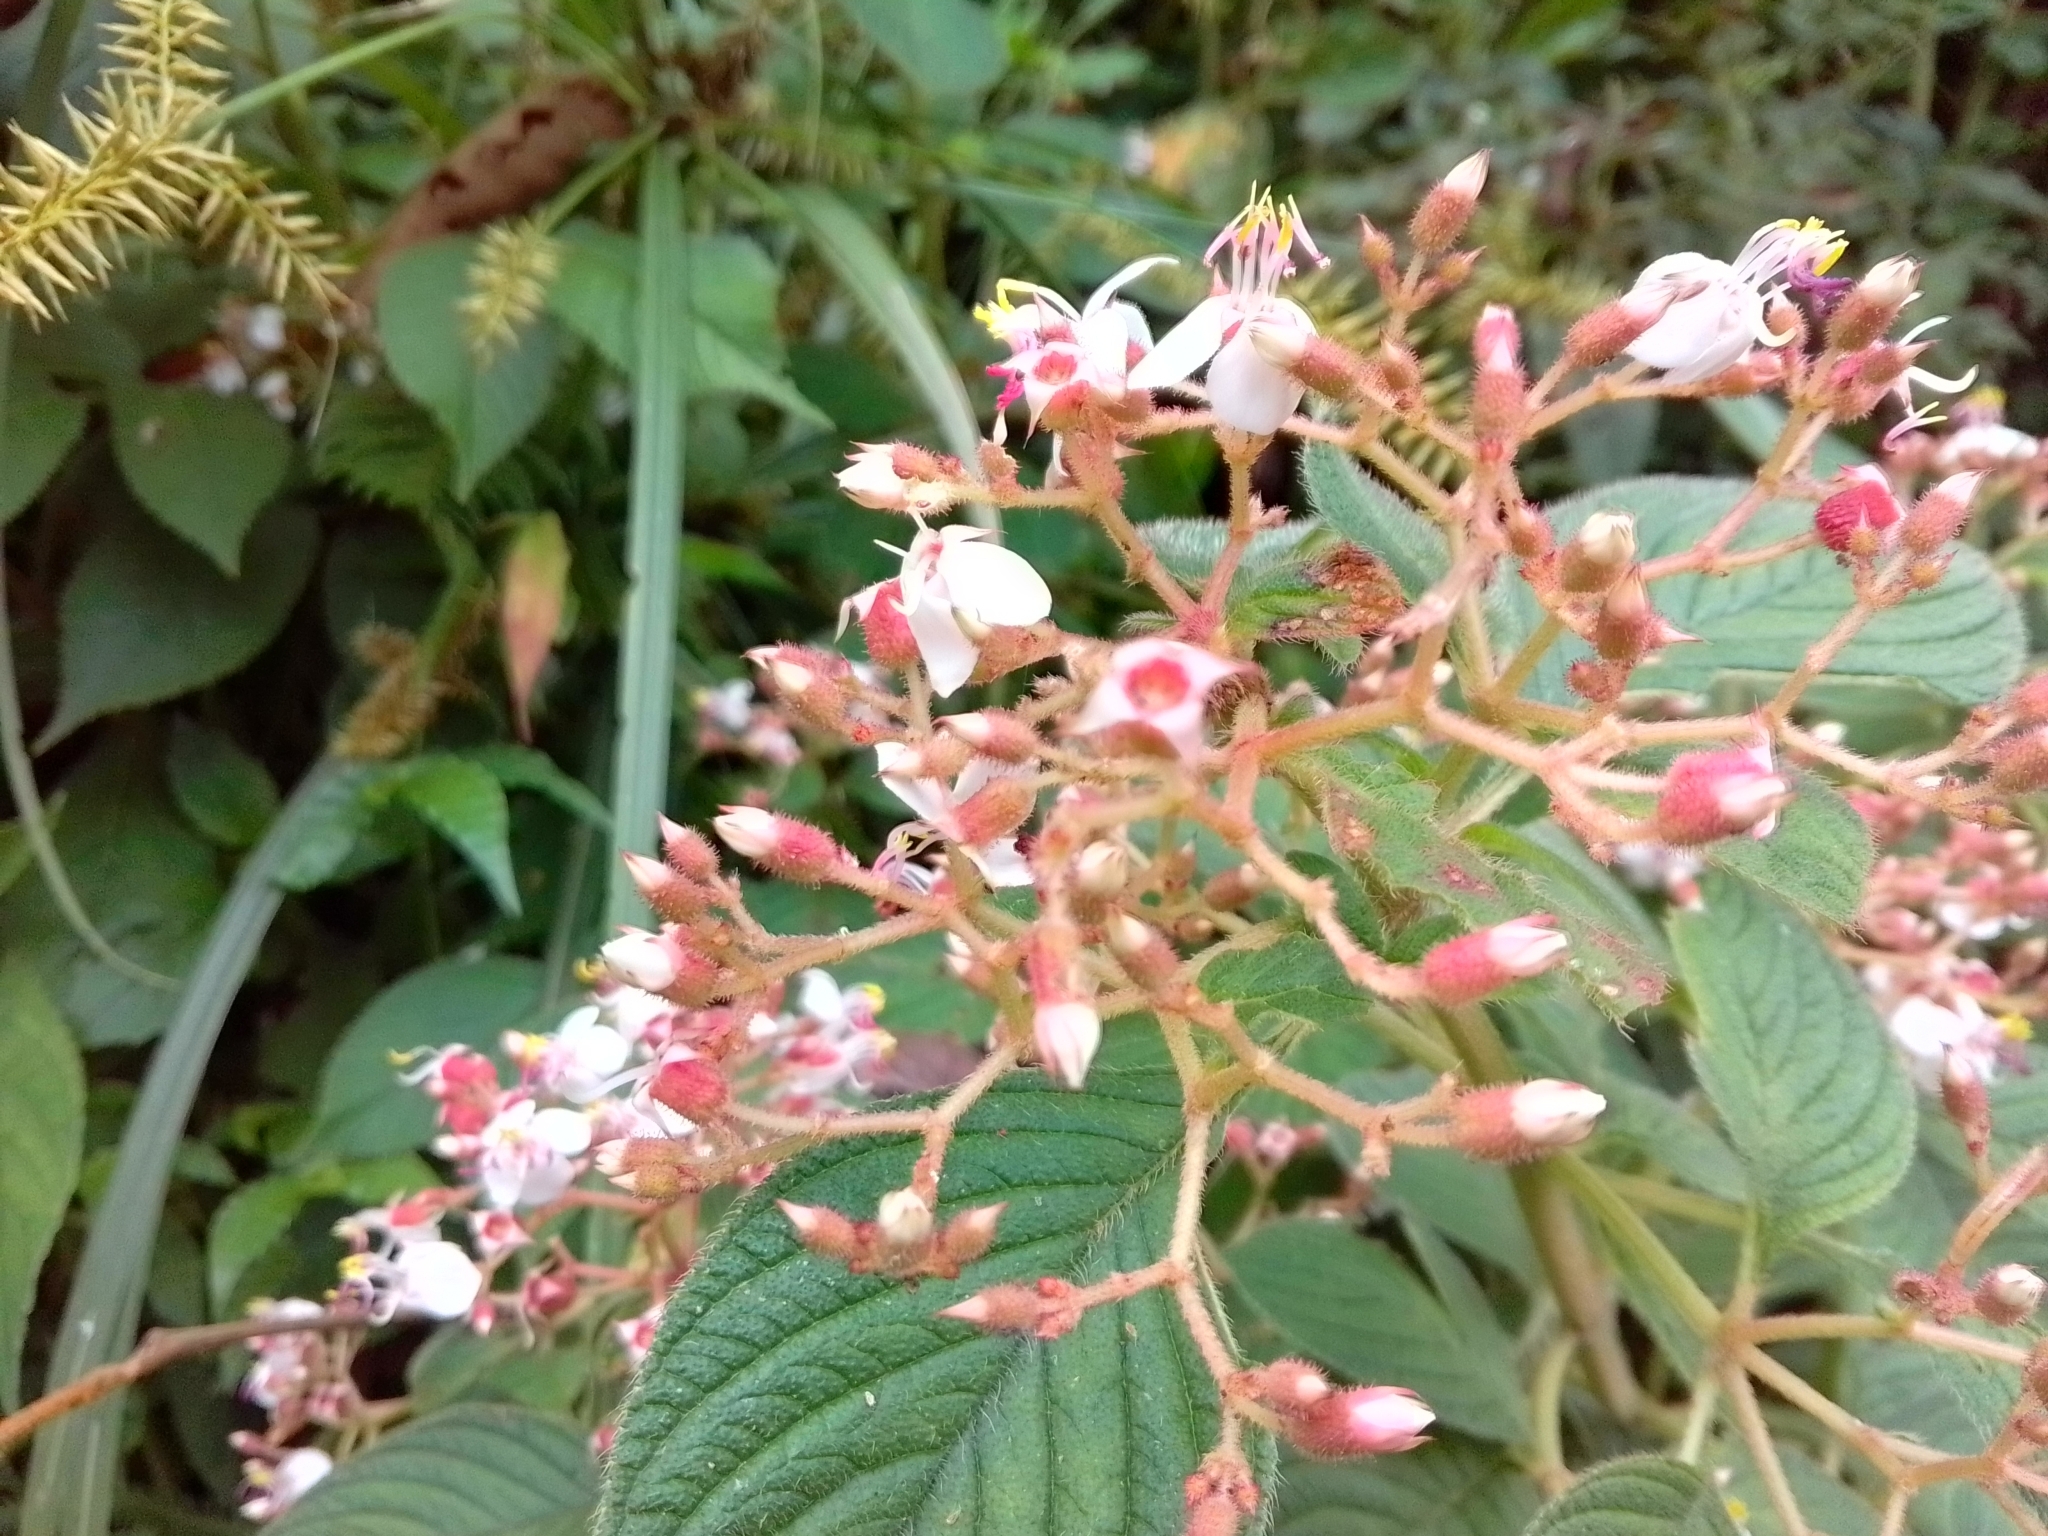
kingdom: Plantae
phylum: Tracheophyta
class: Magnoliopsida
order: Myrtales
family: Melastomataceae
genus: Heterocentron
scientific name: Heterocentron glandulosum
